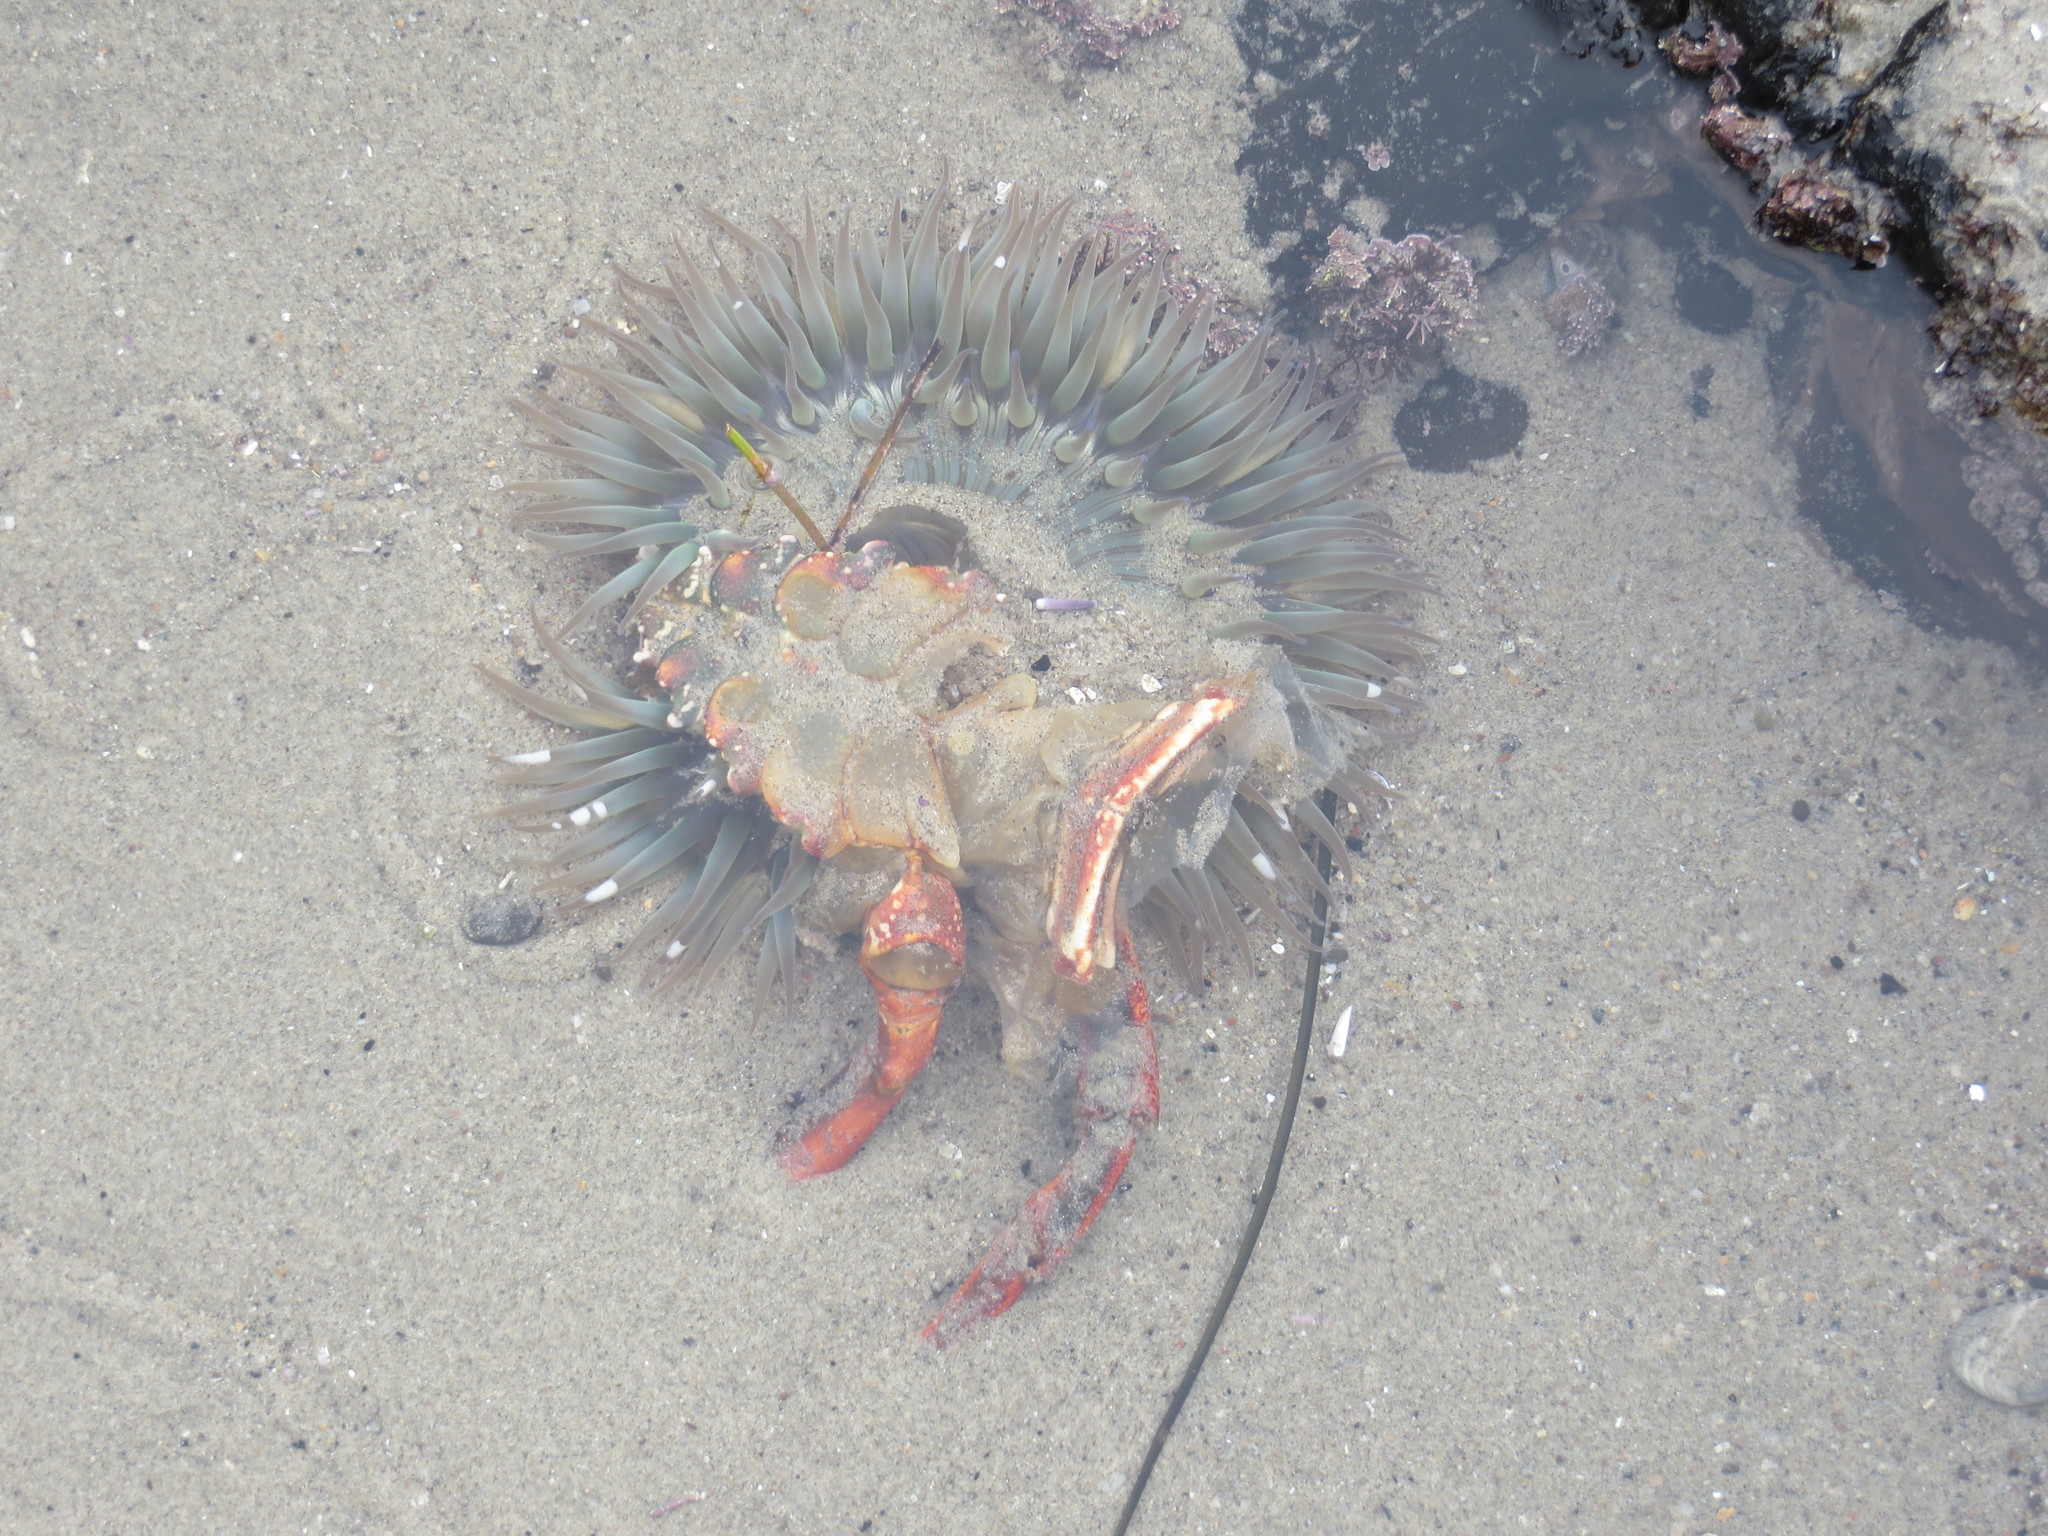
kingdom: Animalia
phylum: Arthropoda
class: Malacostraca
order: Decapoda
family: Palinuridae
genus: Panulirus
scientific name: Panulirus interruptus
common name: California spiny lobster
